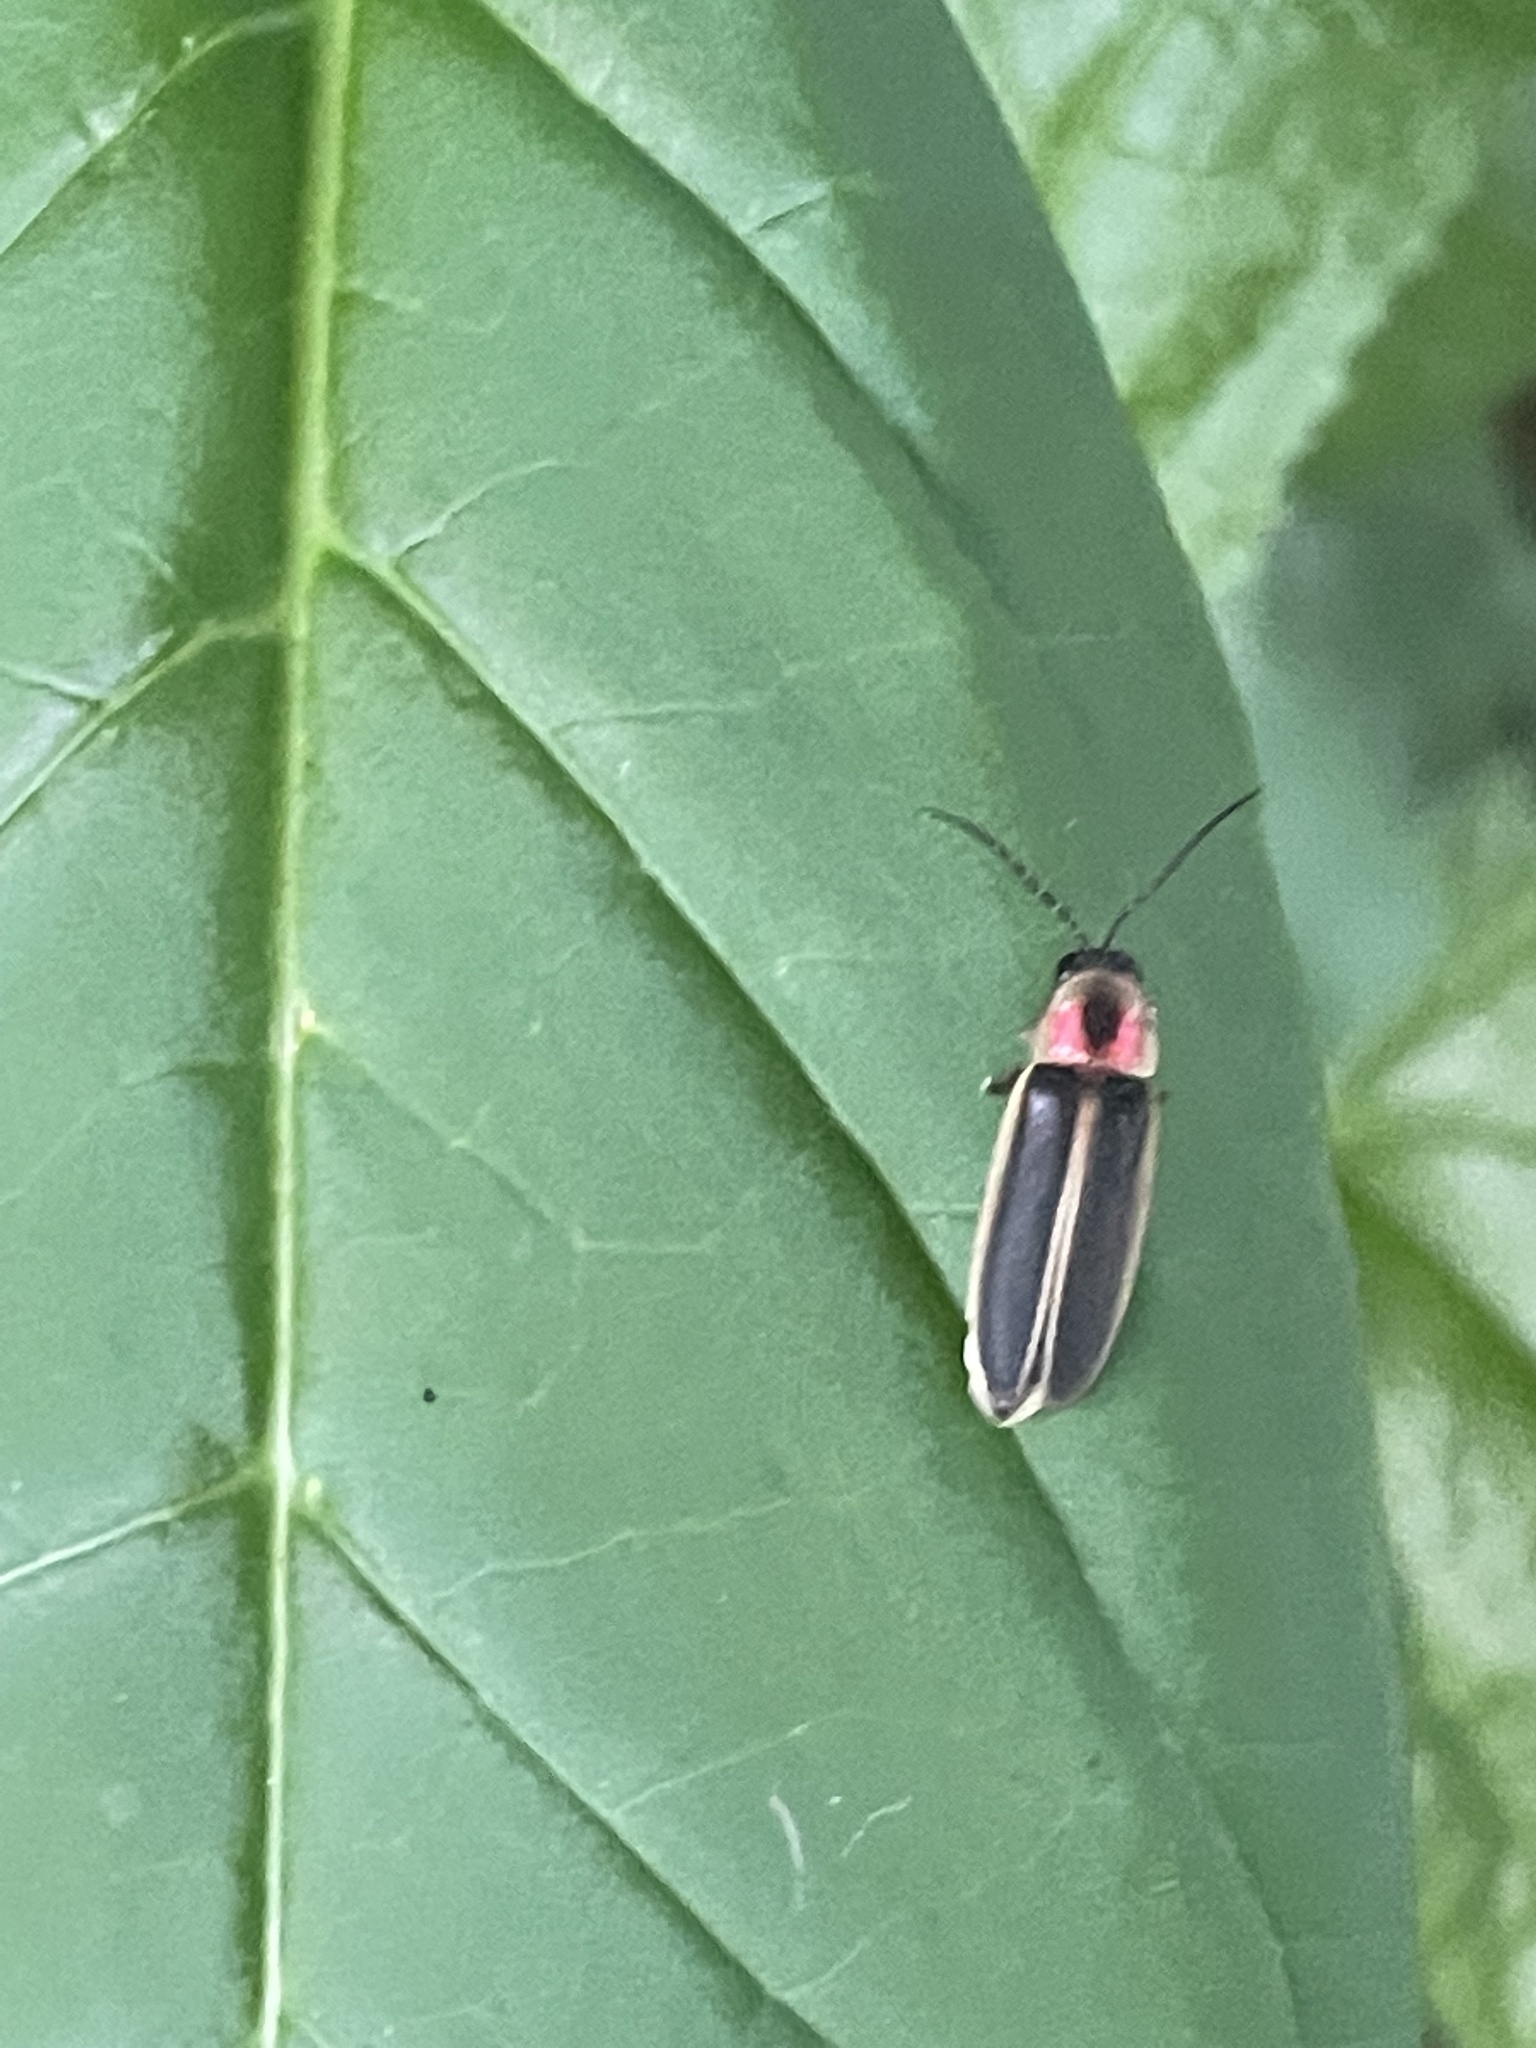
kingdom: Animalia
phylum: Arthropoda
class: Insecta
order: Coleoptera
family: Lampyridae
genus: Photinus
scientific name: Photinus pyralis
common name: Big dipper firefly
